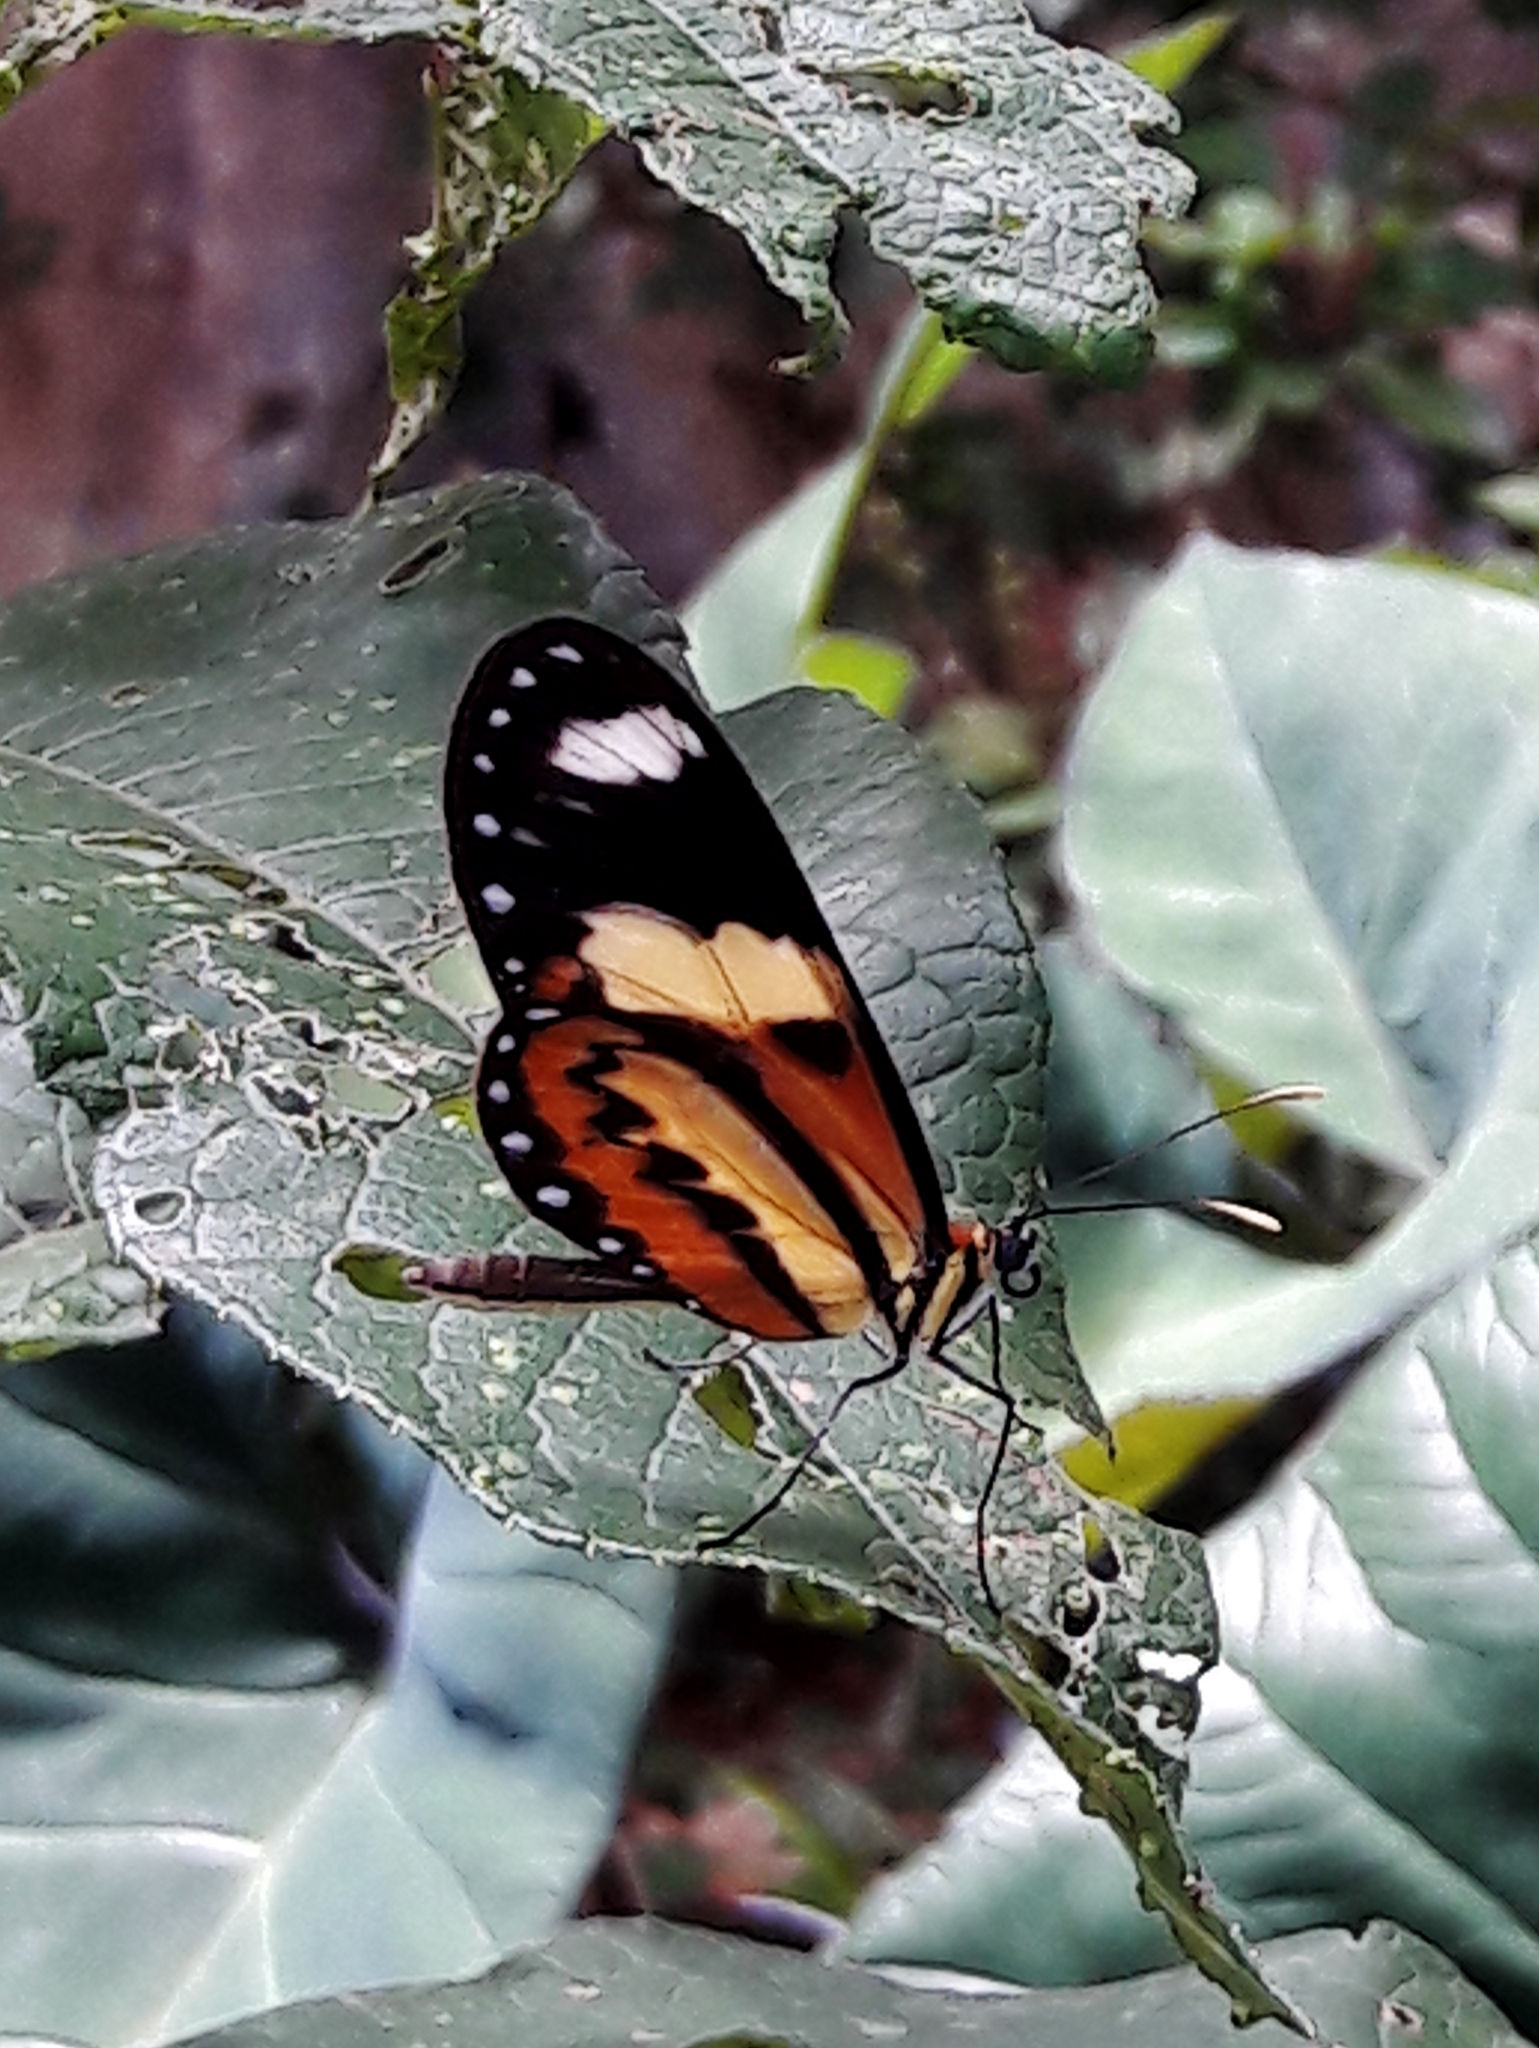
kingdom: Animalia
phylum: Arthropoda
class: Insecta
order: Lepidoptera
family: Nymphalidae
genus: Mechanitis
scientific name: Mechanitis lysimnia
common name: Lysimnia tigerwing
